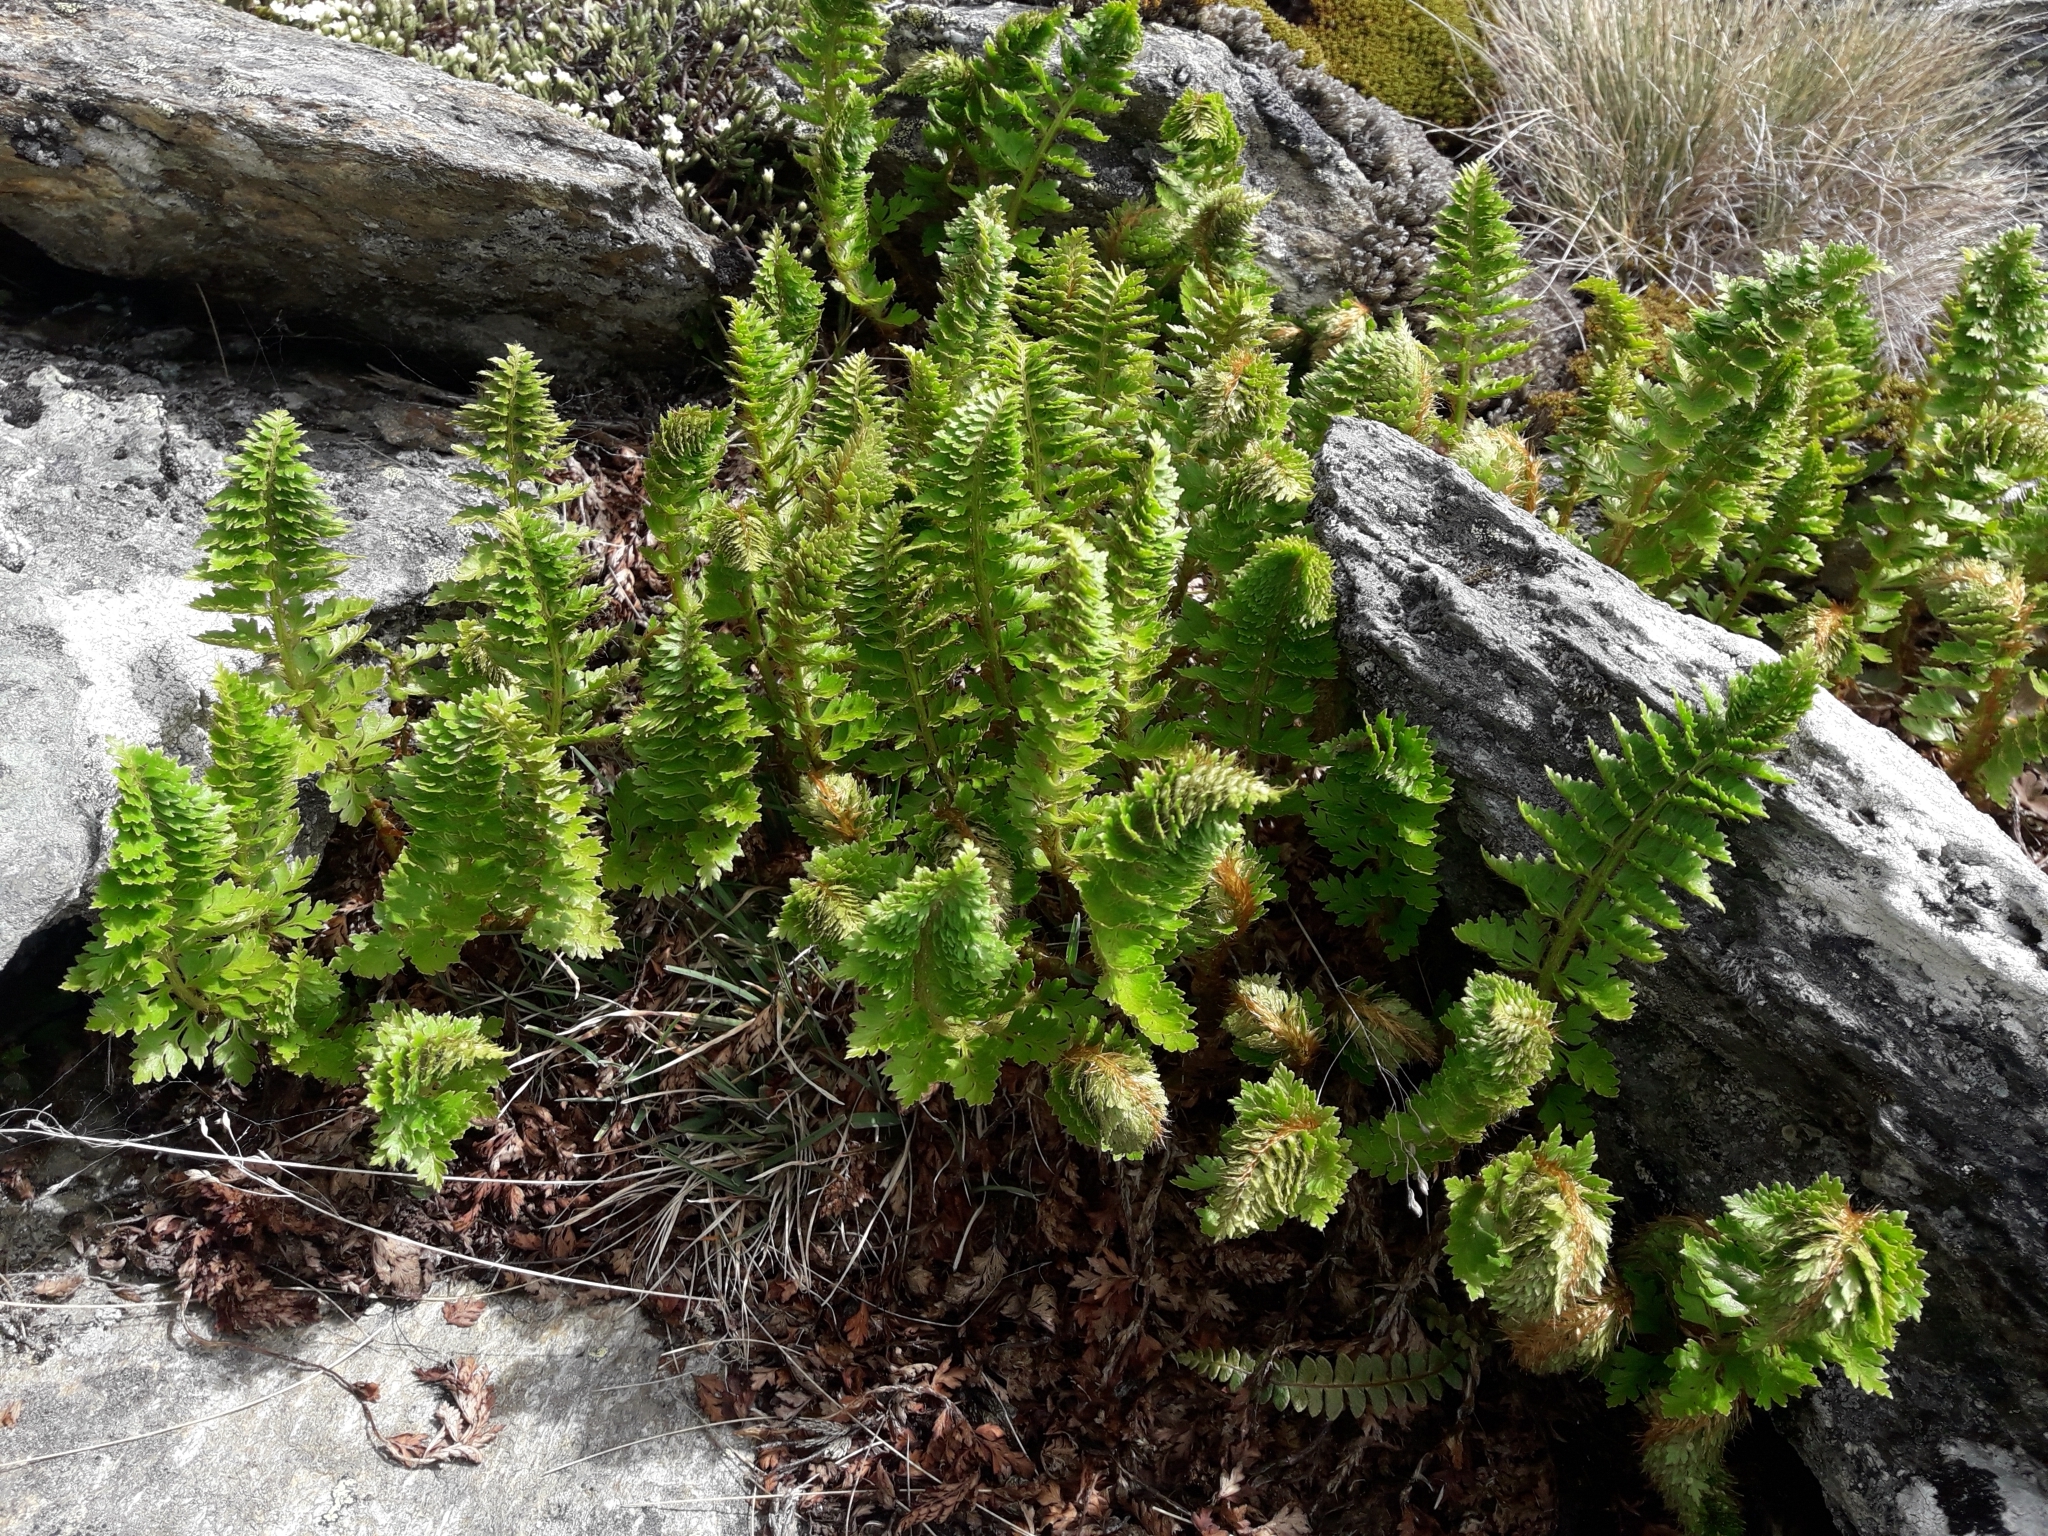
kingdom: Plantae
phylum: Tracheophyta
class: Polypodiopsida
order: Polypodiales
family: Dryopteridaceae
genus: Polystichum
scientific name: Polystichum cystostegia
